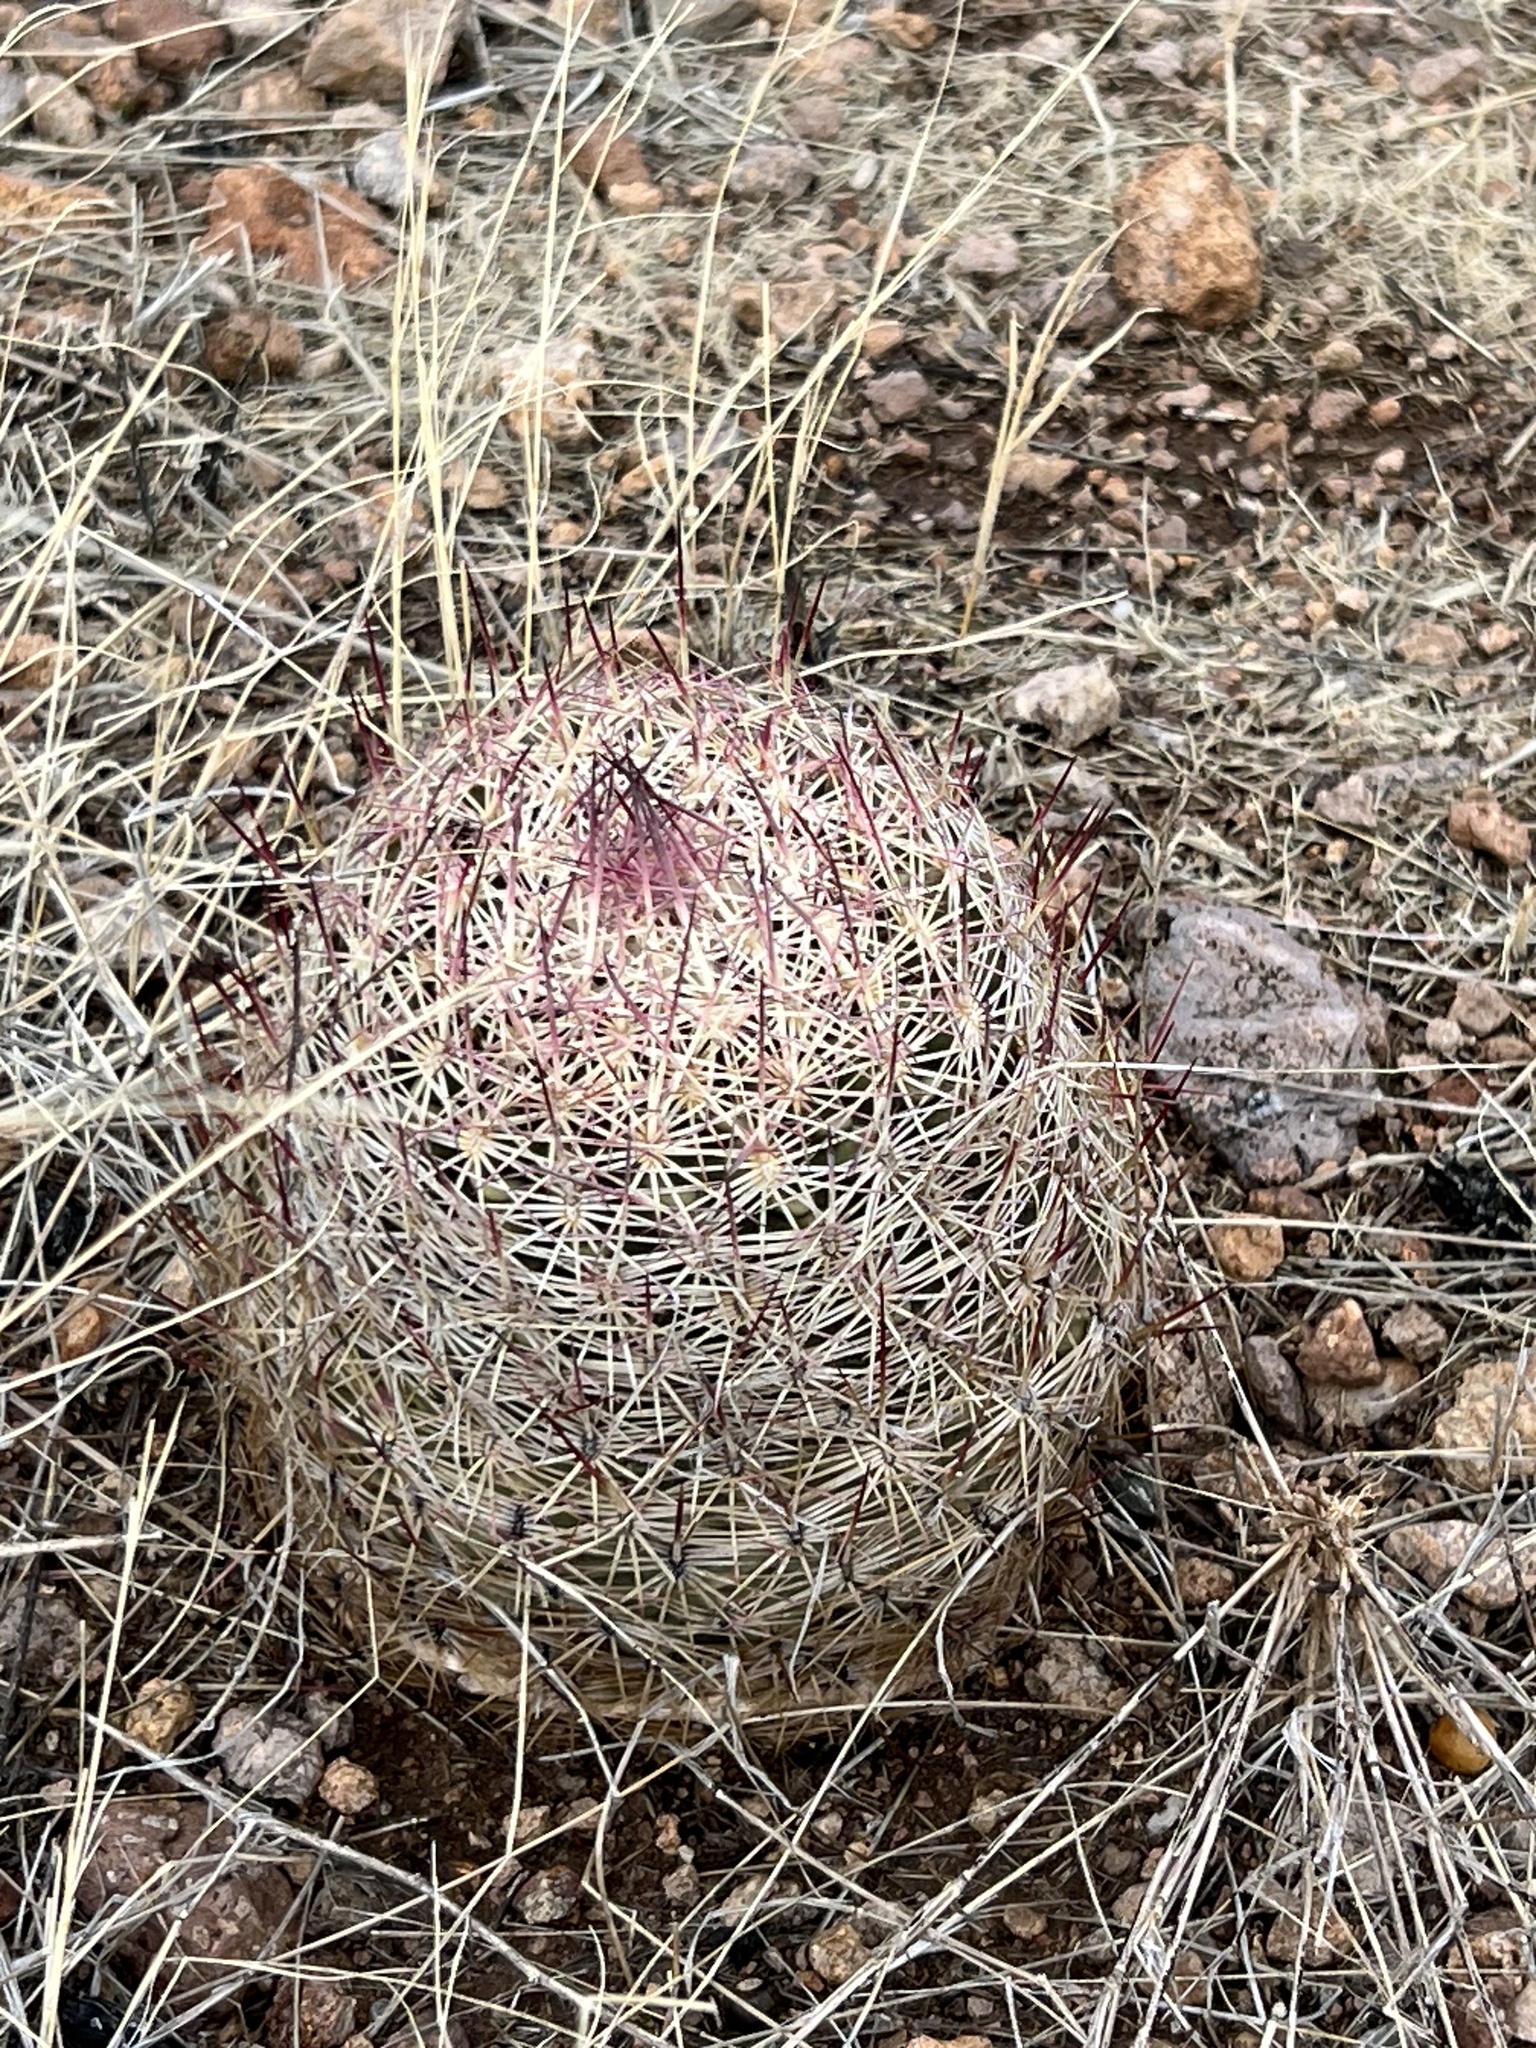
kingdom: Plantae
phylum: Tracheophyta
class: Magnoliopsida
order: Caryophyllales
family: Cactaceae
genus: Sclerocactus
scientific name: Sclerocactus johnsonii
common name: Eight-spine fishhook cactus
